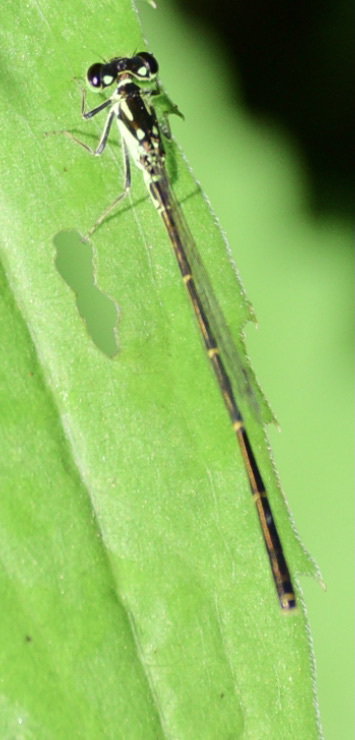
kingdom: Animalia
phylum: Arthropoda
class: Insecta
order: Odonata
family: Coenagrionidae
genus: Ischnura
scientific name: Ischnura posita
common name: Fragile forktail
